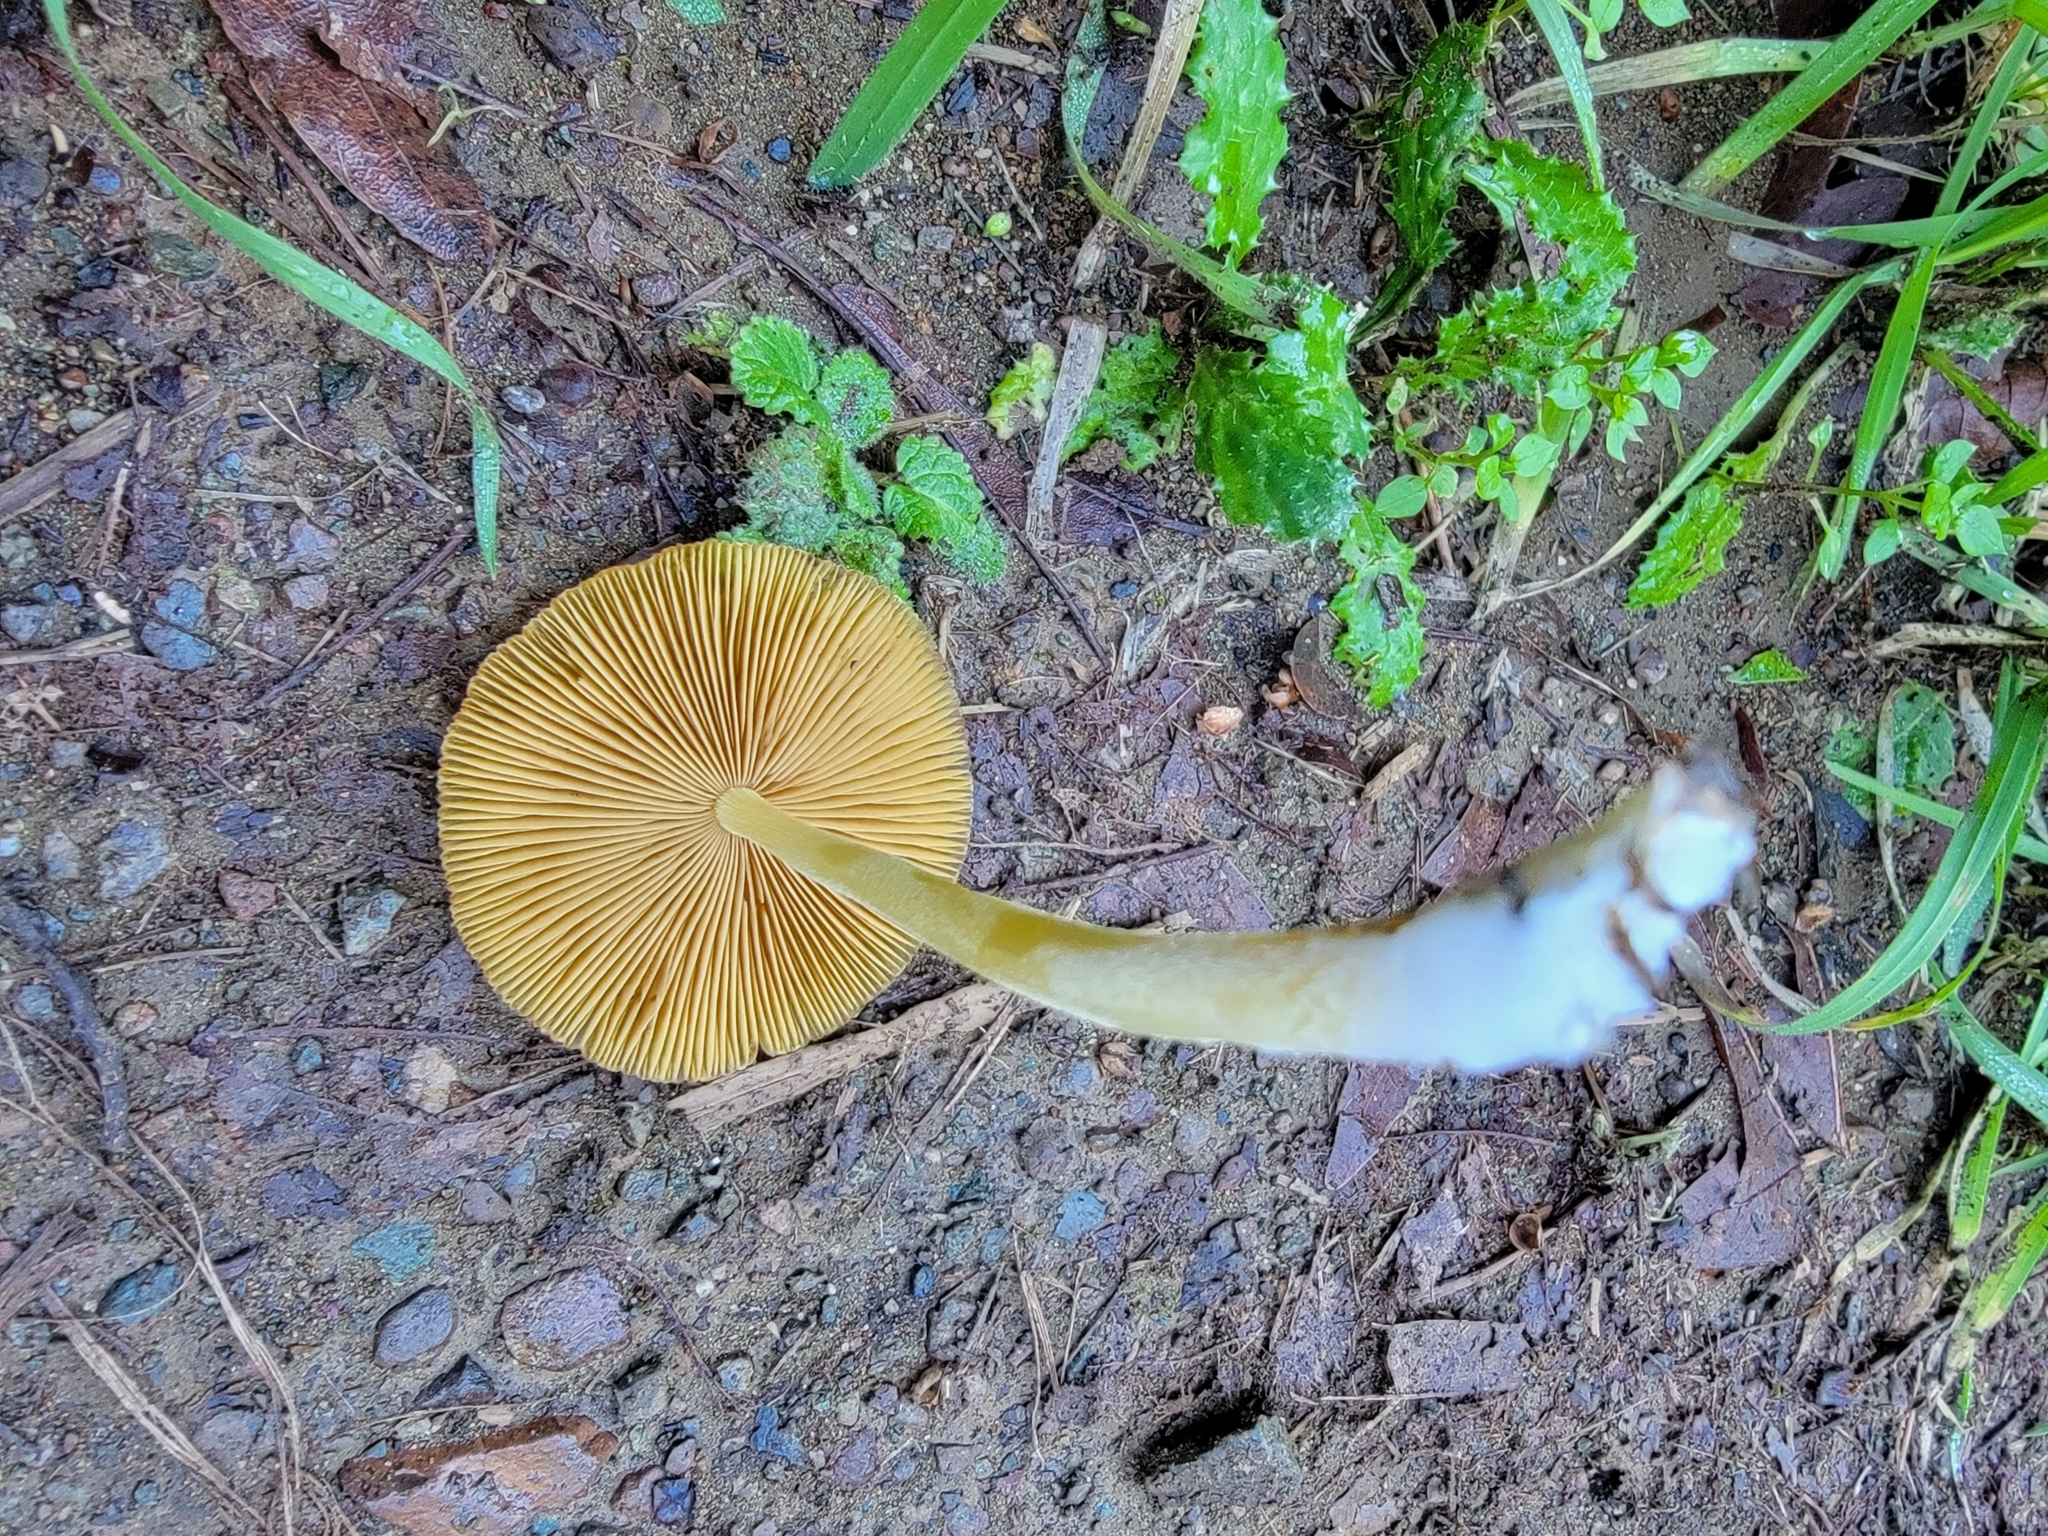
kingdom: Fungi
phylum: Basidiomycota
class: Agaricomycetes
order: Agaricales
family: Bolbitiaceae
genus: Bolbitius
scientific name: Bolbitius titubans
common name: Yellow fieldcap
